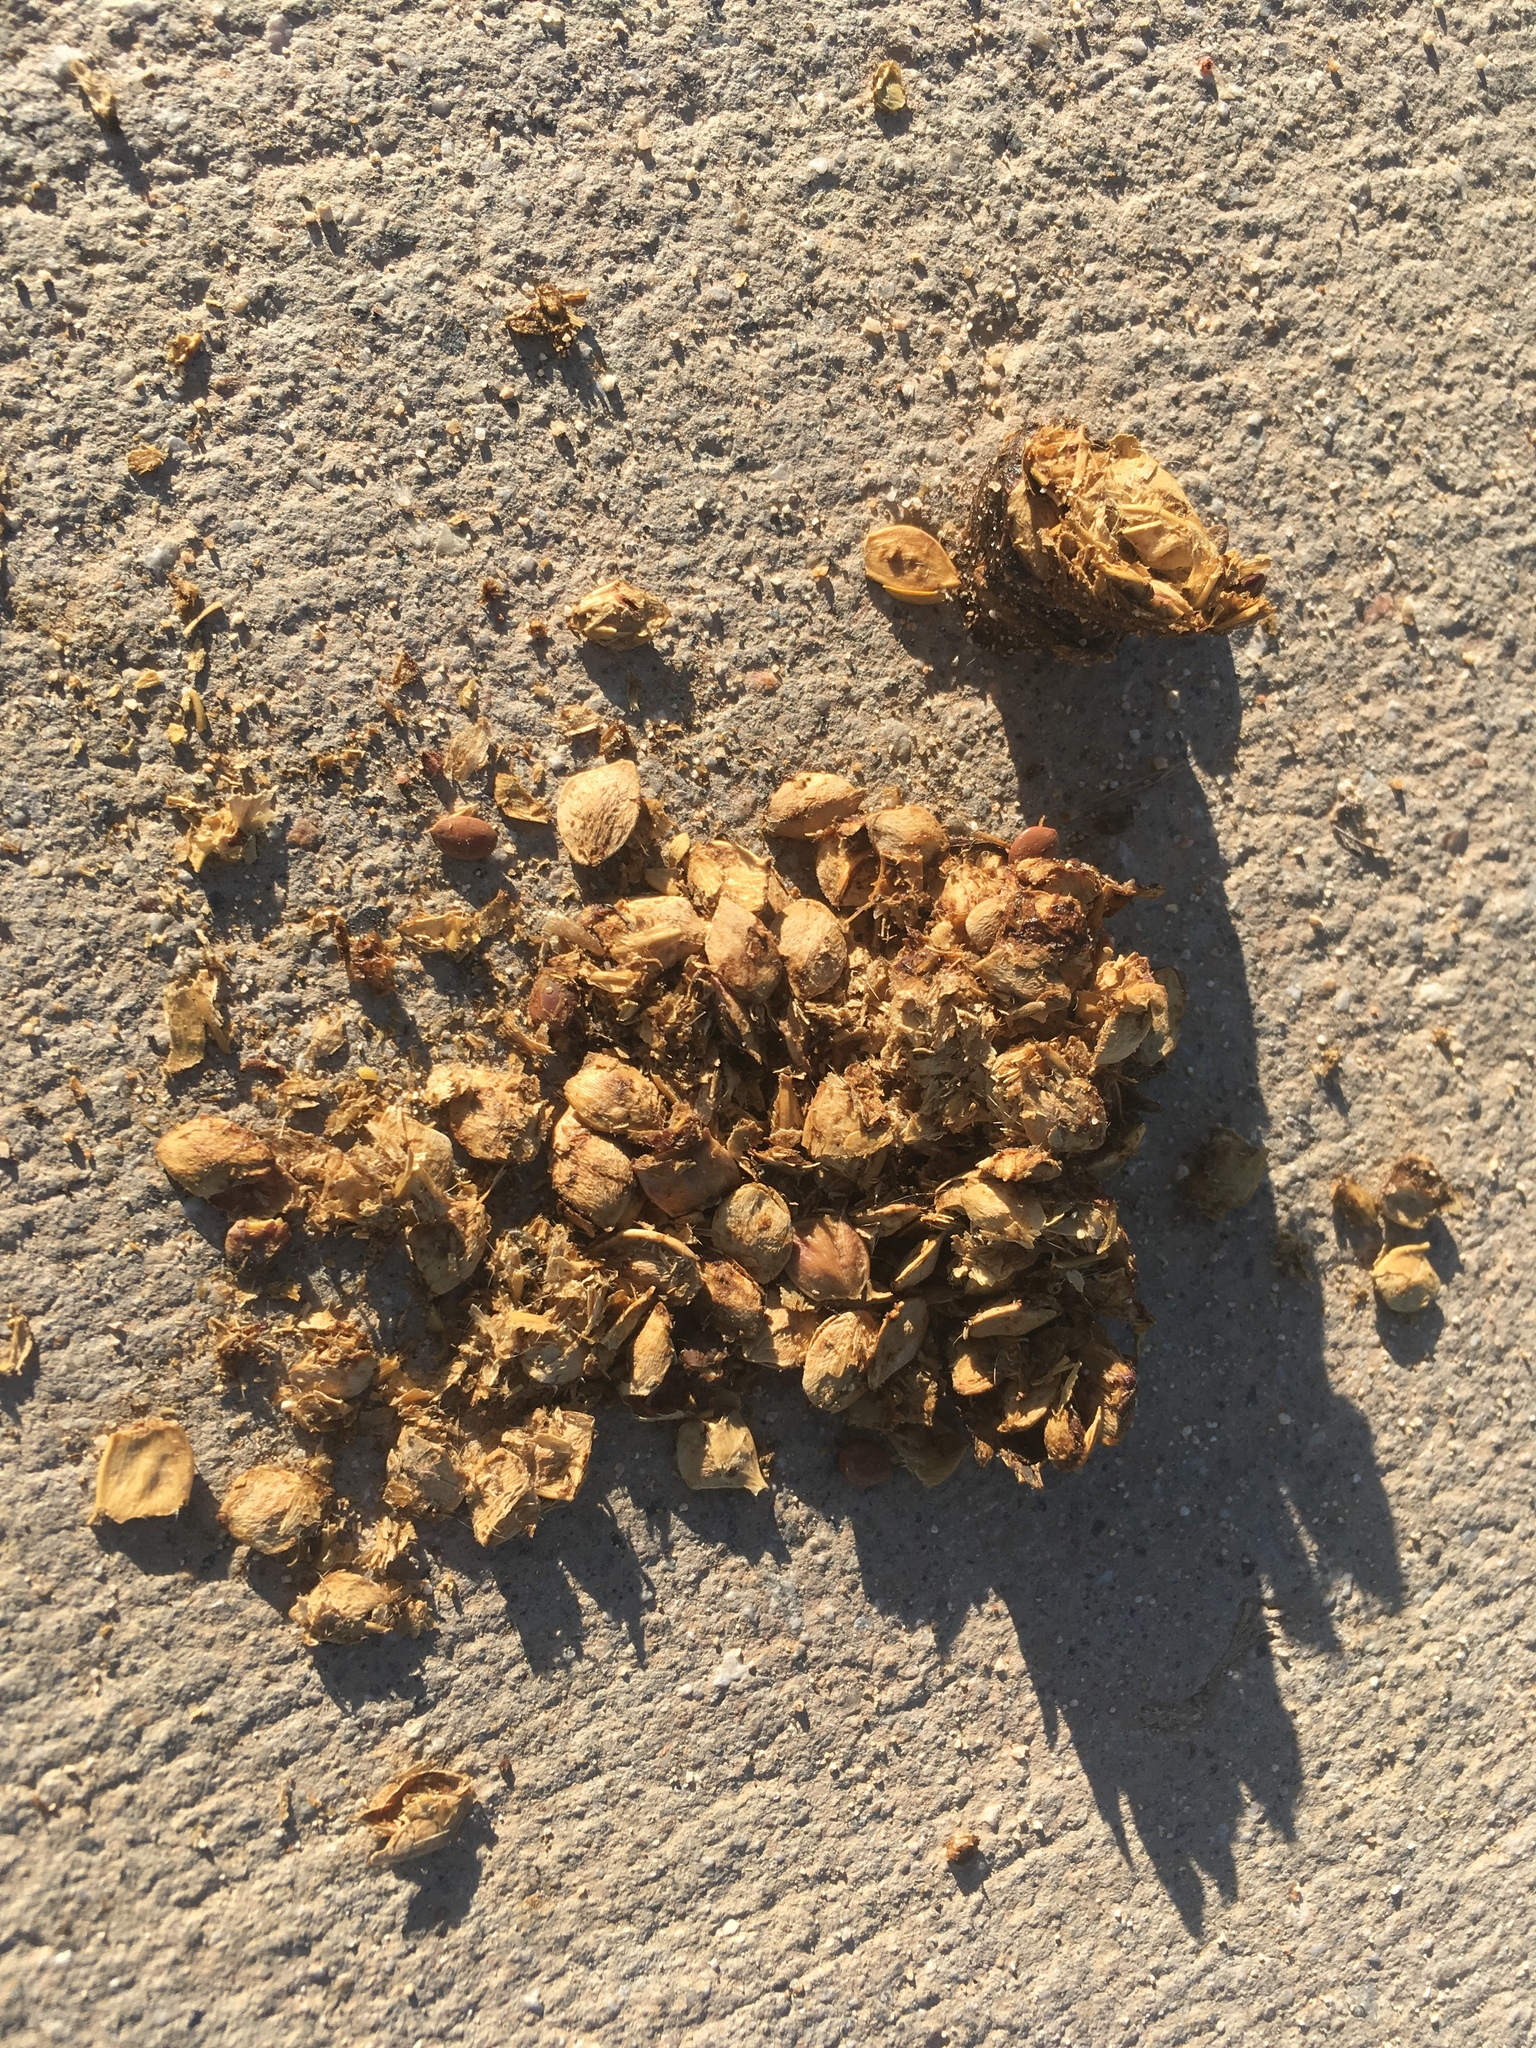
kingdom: Animalia
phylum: Chordata
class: Mammalia
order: Carnivora
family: Canidae
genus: Canis
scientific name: Canis latrans
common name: Coyote
